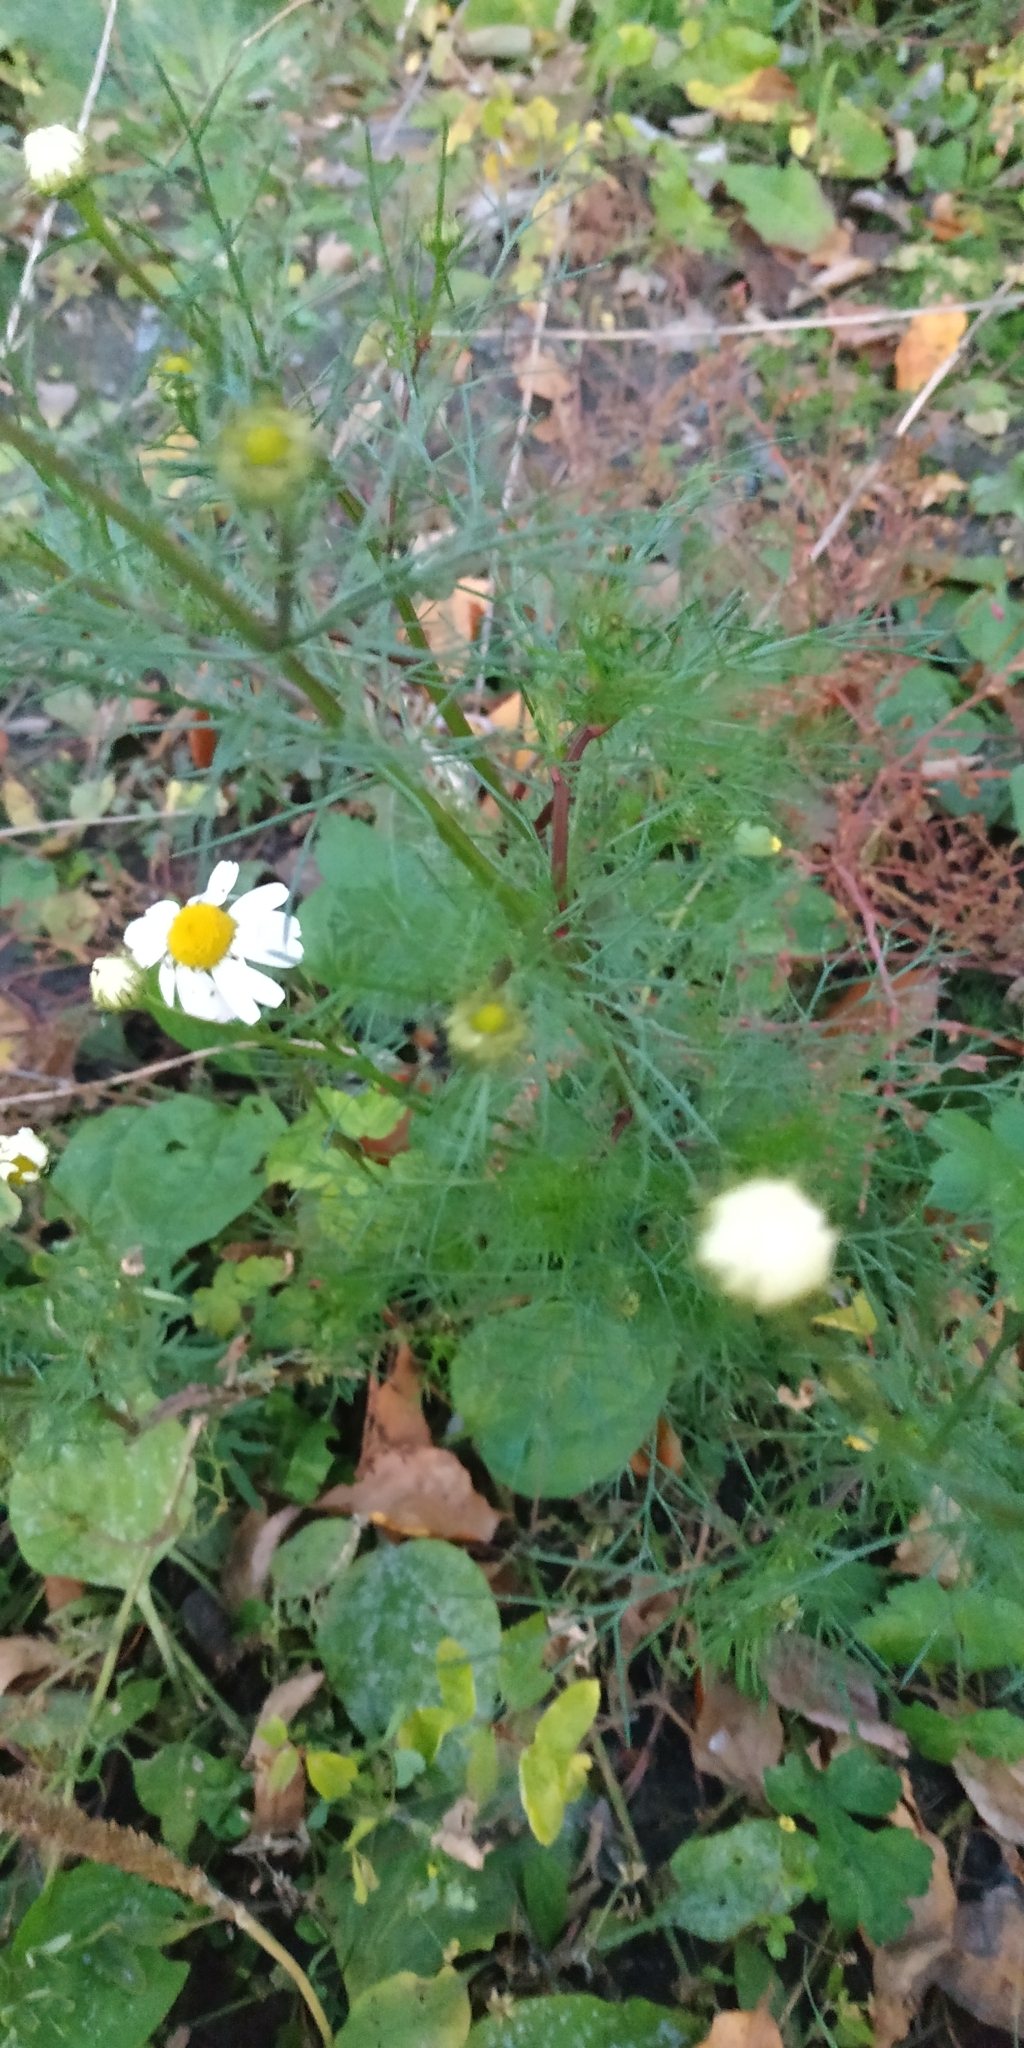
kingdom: Plantae
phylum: Tracheophyta
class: Magnoliopsida
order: Asterales
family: Asteraceae
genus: Tripleurospermum
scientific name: Tripleurospermum inodorum
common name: Scentless mayweed
